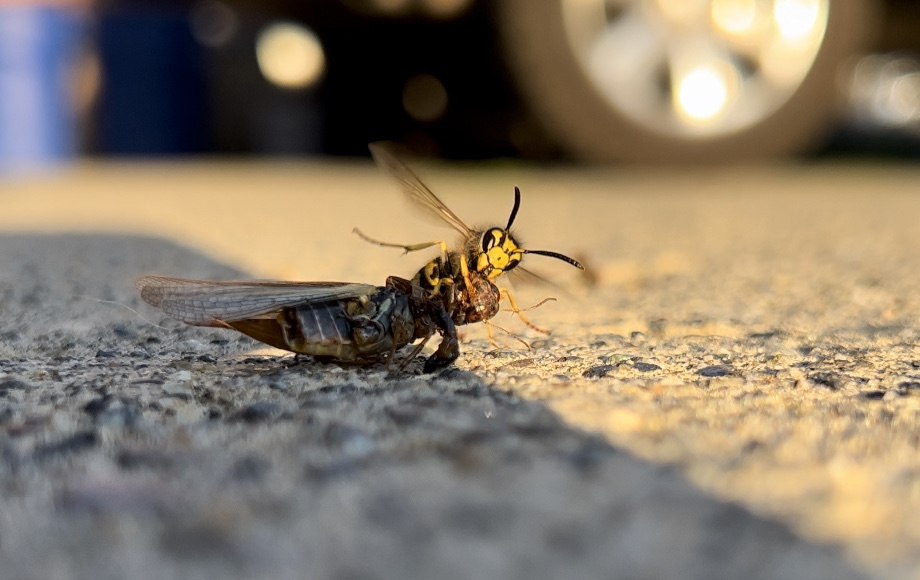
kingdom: Animalia
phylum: Arthropoda
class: Insecta
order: Hymenoptera
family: Vespidae
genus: Vespula
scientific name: Vespula pensylvanica
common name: Western yellowjacket
